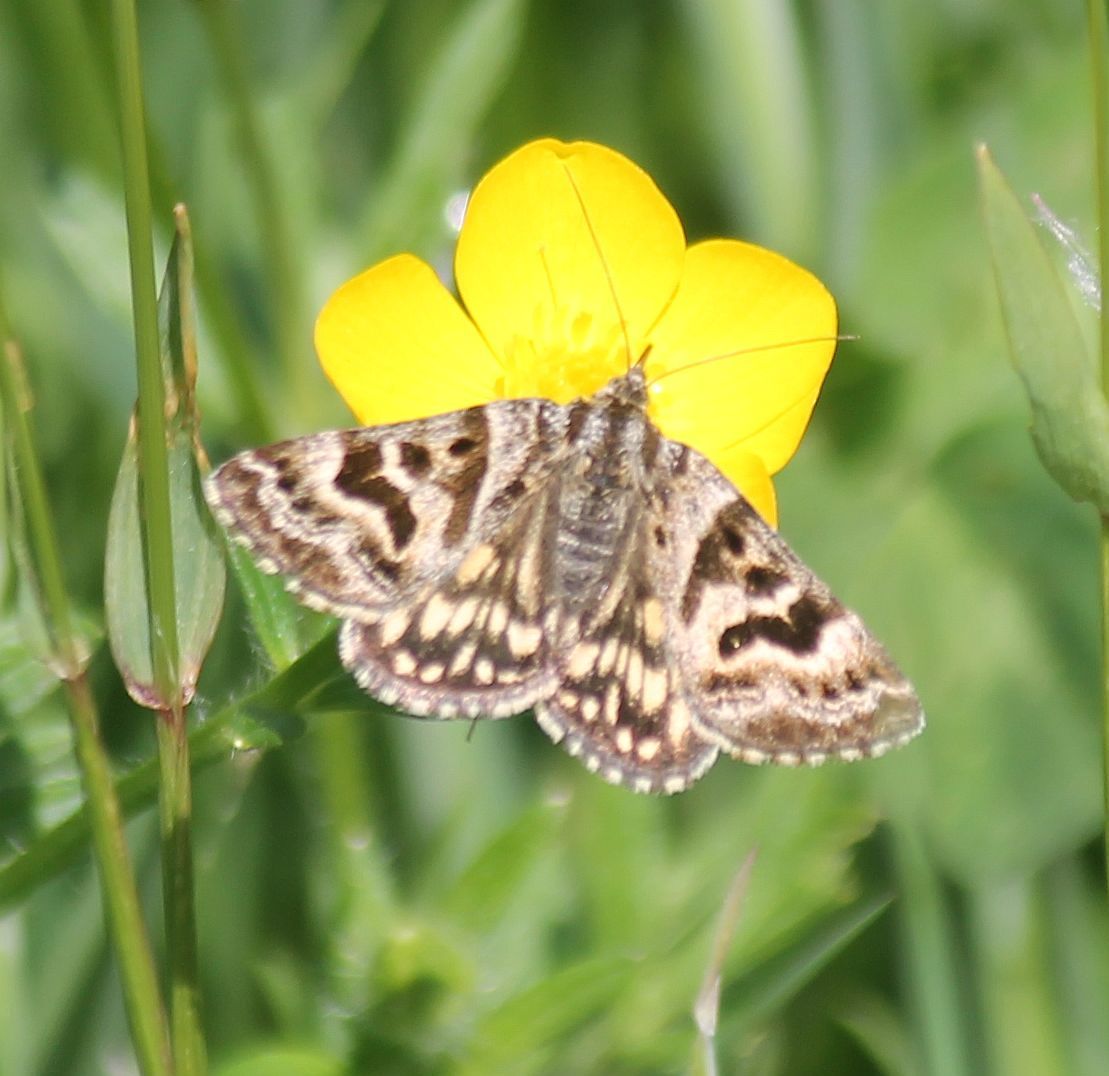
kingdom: Animalia
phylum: Arthropoda
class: Insecta
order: Lepidoptera
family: Erebidae
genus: Callistege
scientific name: Callistege mi
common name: Mother shipton
